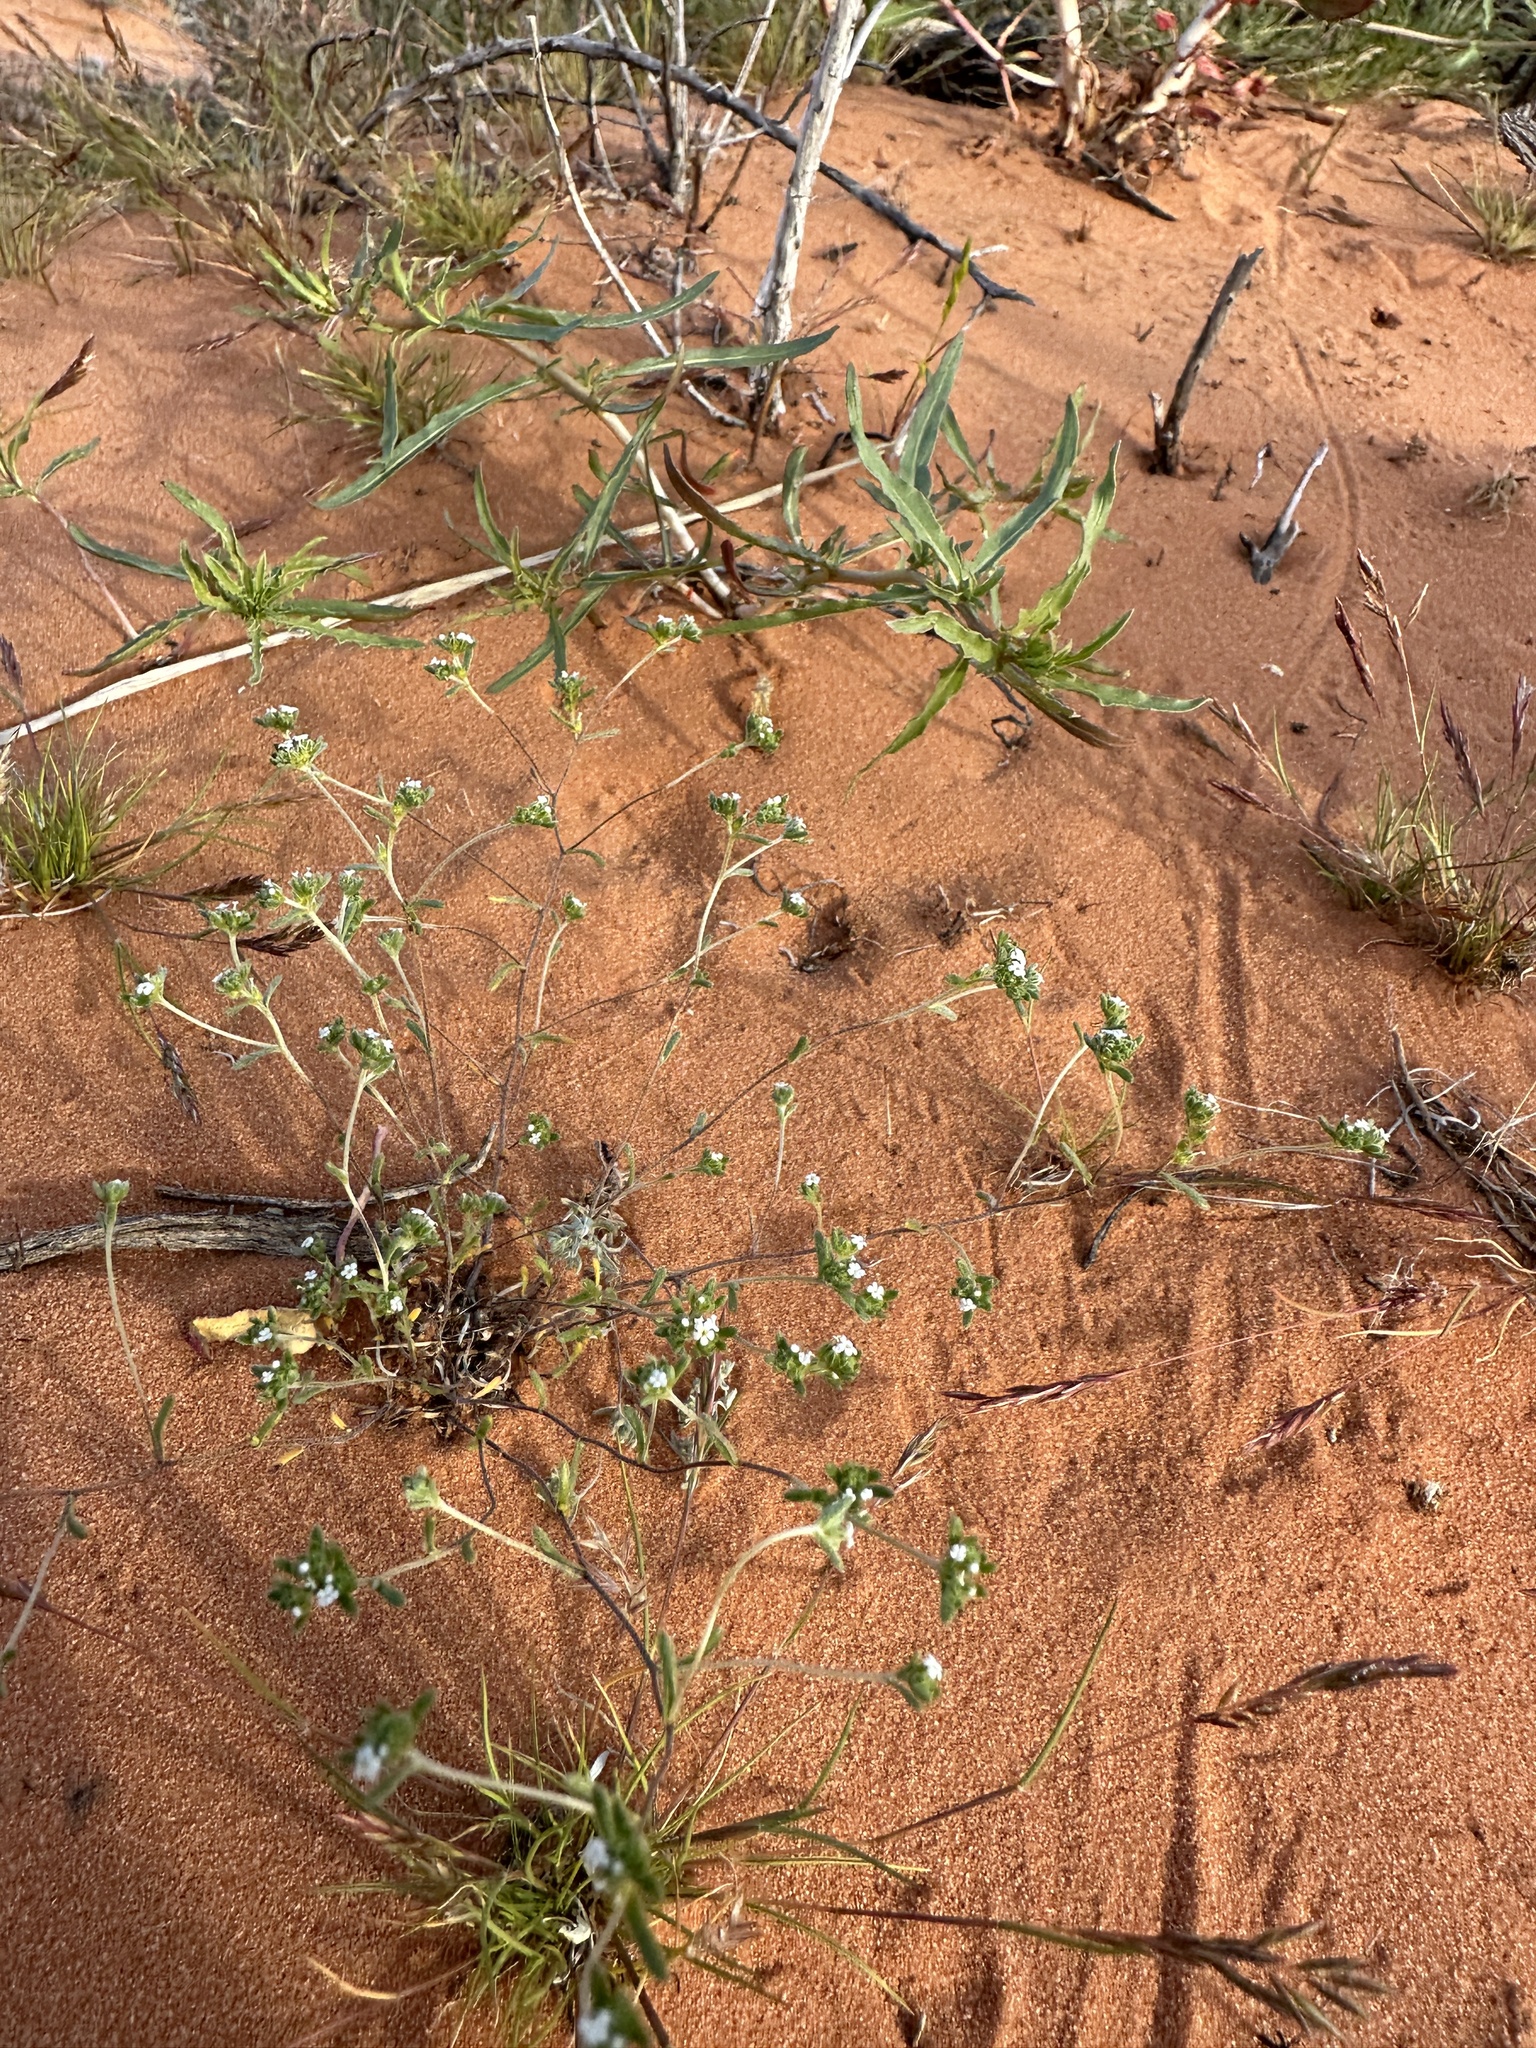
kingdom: Plantae
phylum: Tracheophyta
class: Magnoliopsida
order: Boraginales
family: Boraginaceae
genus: Eremocarya
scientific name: Eremocarya micrantha
